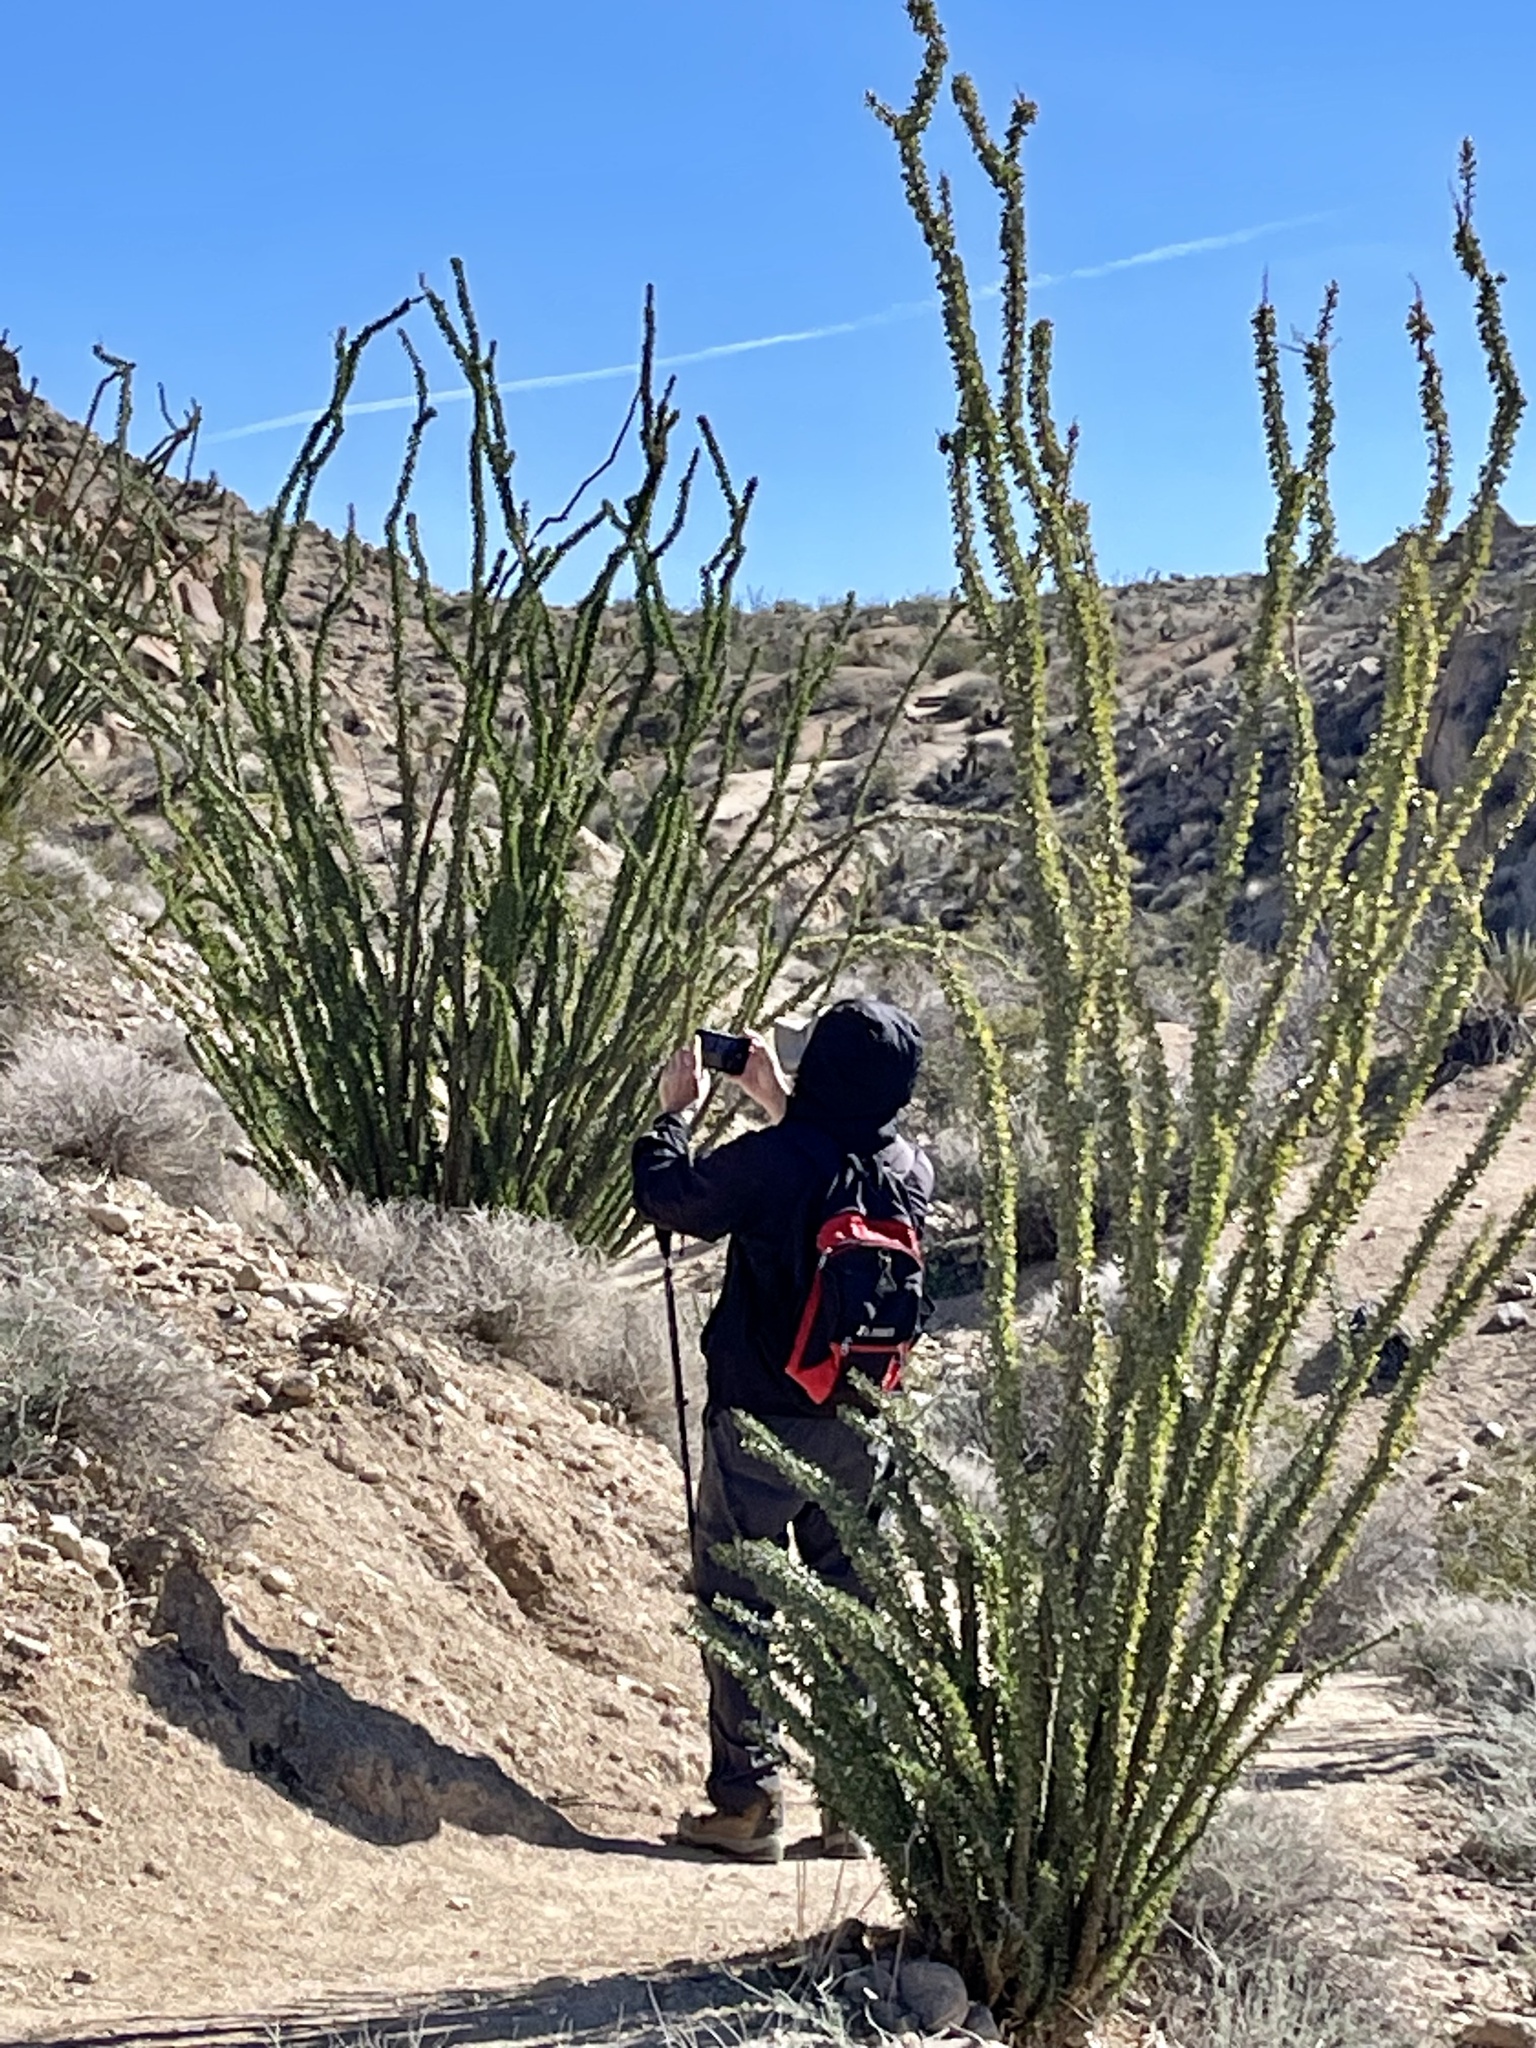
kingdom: Plantae
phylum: Tracheophyta
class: Magnoliopsida
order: Ericales
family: Fouquieriaceae
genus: Fouquieria
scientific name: Fouquieria splendens
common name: Vine-cactus
